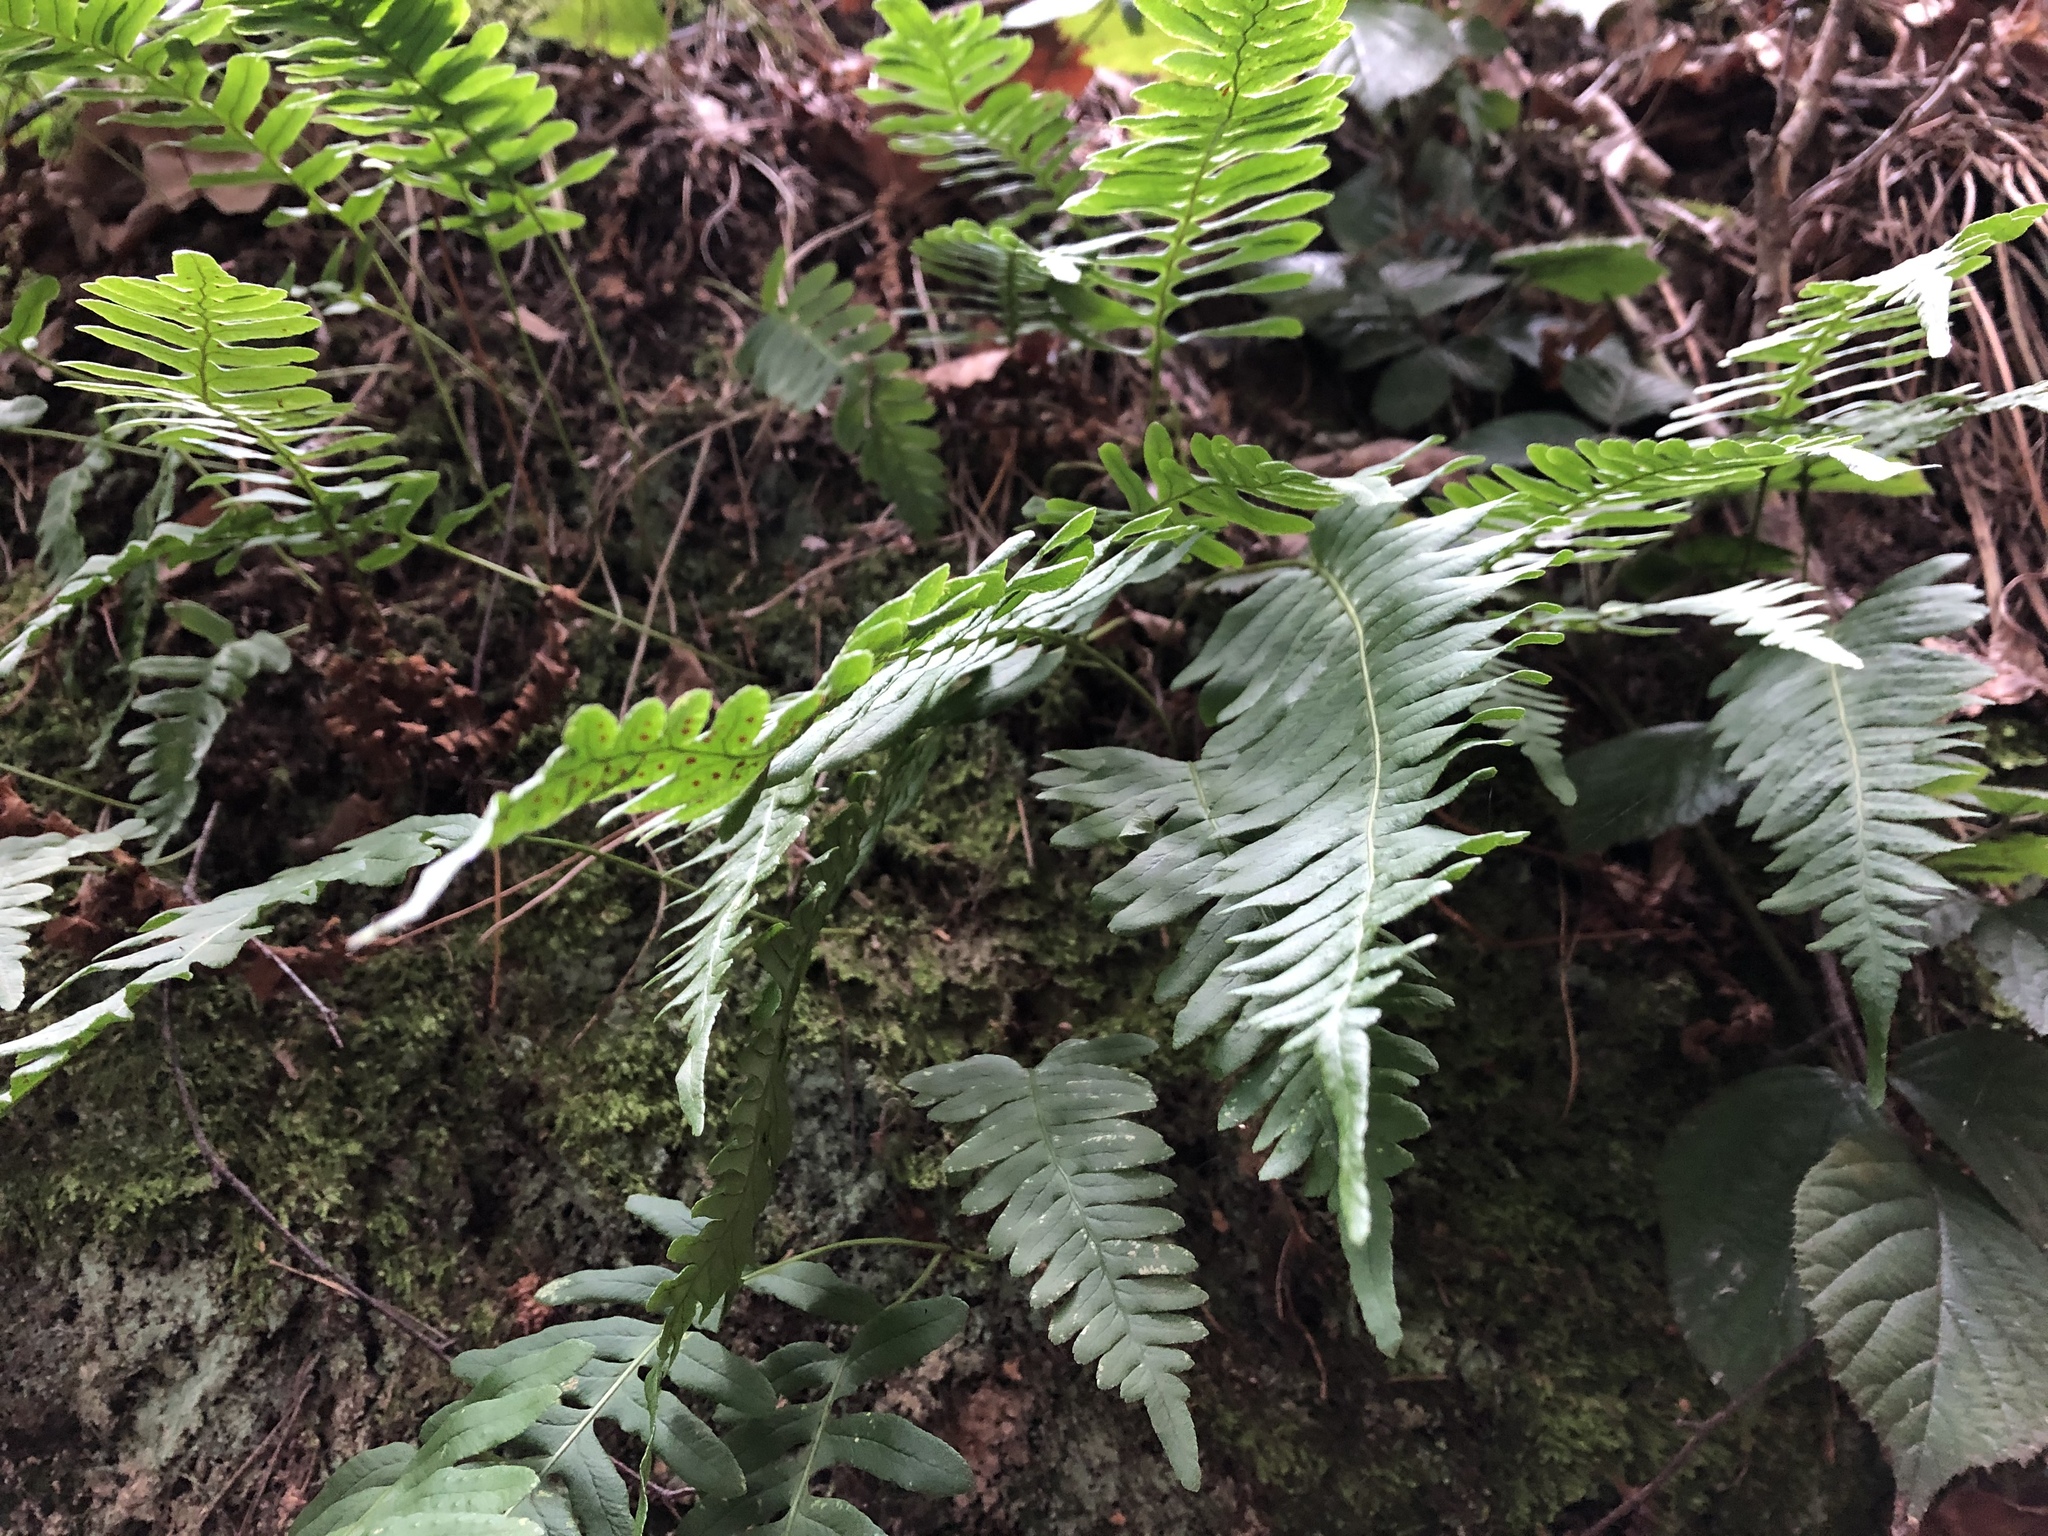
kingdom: Plantae
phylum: Tracheophyta
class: Polypodiopsida
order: Polypodiales
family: Polypodiaceae
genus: Polypodium
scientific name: Polypodium vulgare
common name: Common polypody
